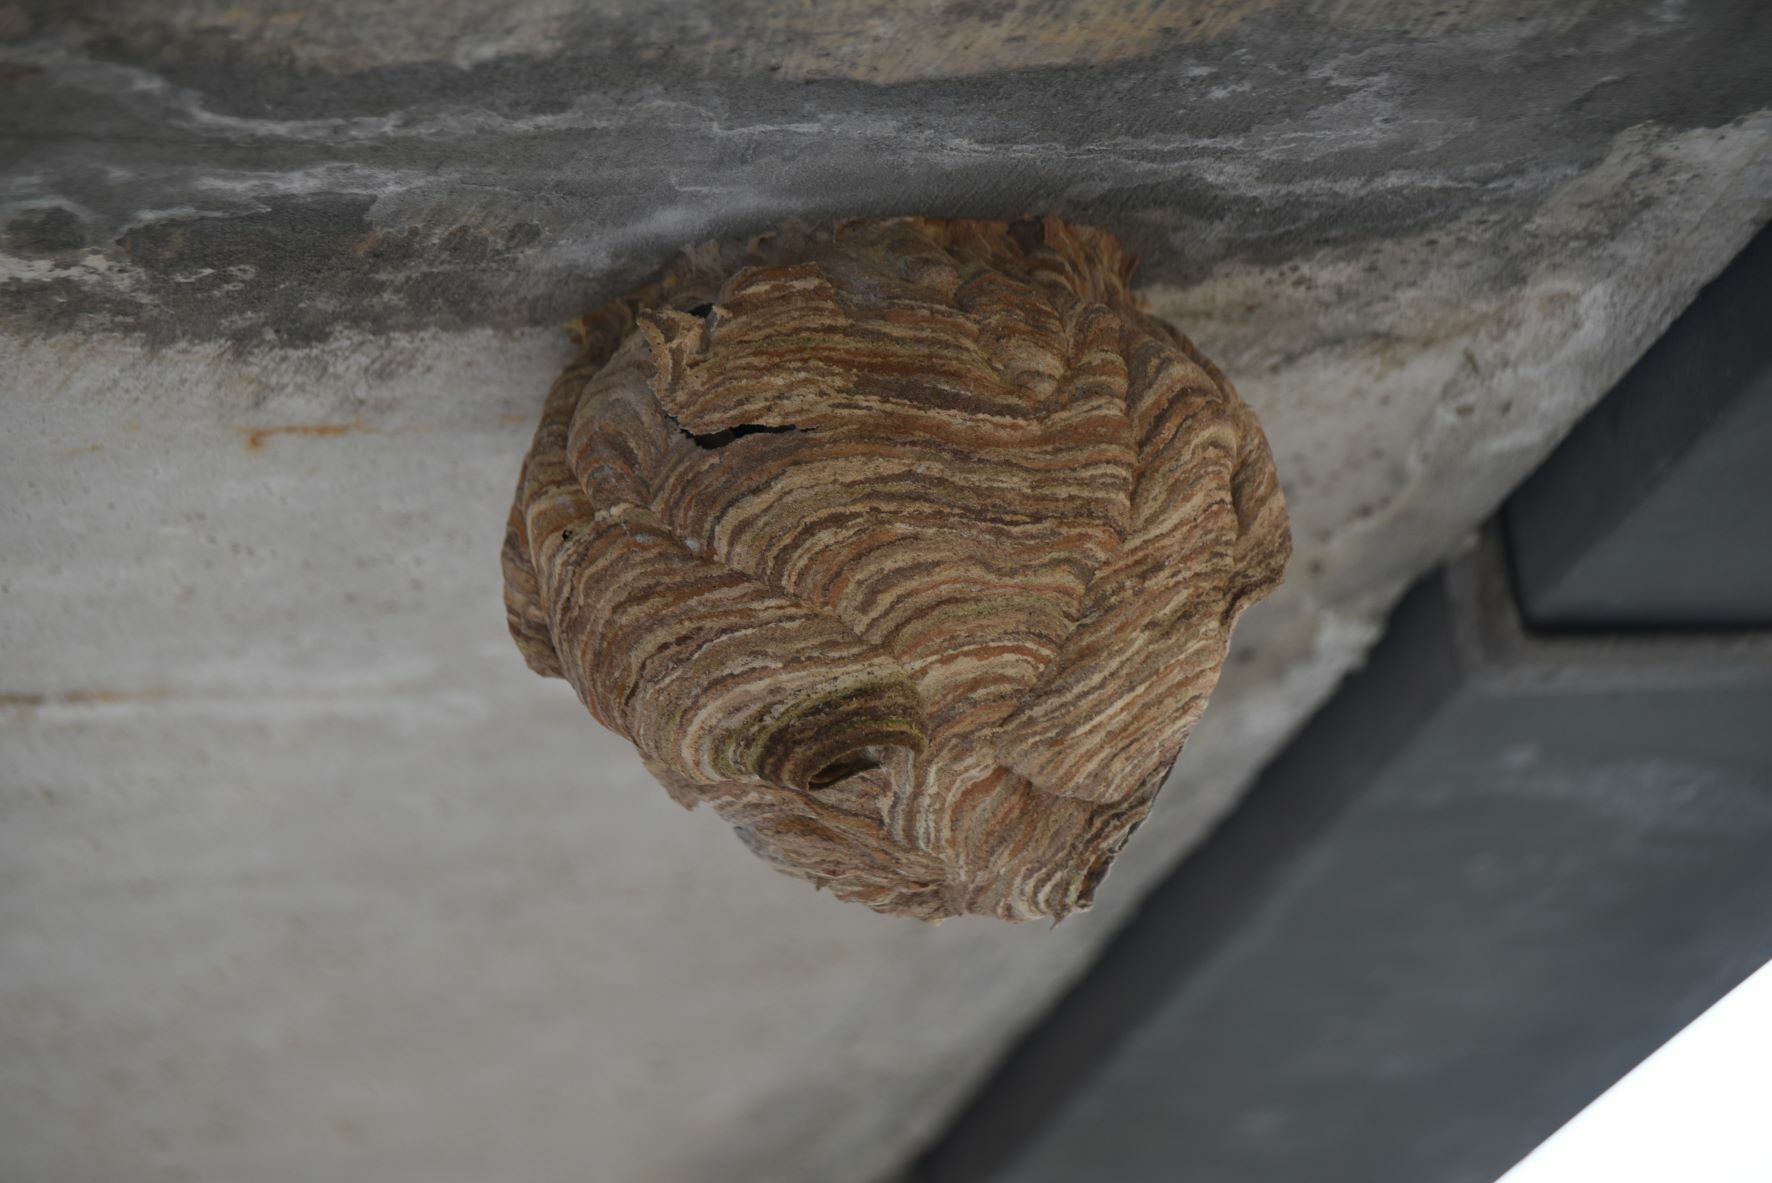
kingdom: Animalia
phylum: Arthropoda
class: Insecta
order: Hymenoptera
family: Vespidae
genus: Vespa
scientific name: Vespa velutina
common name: Asian hornet
